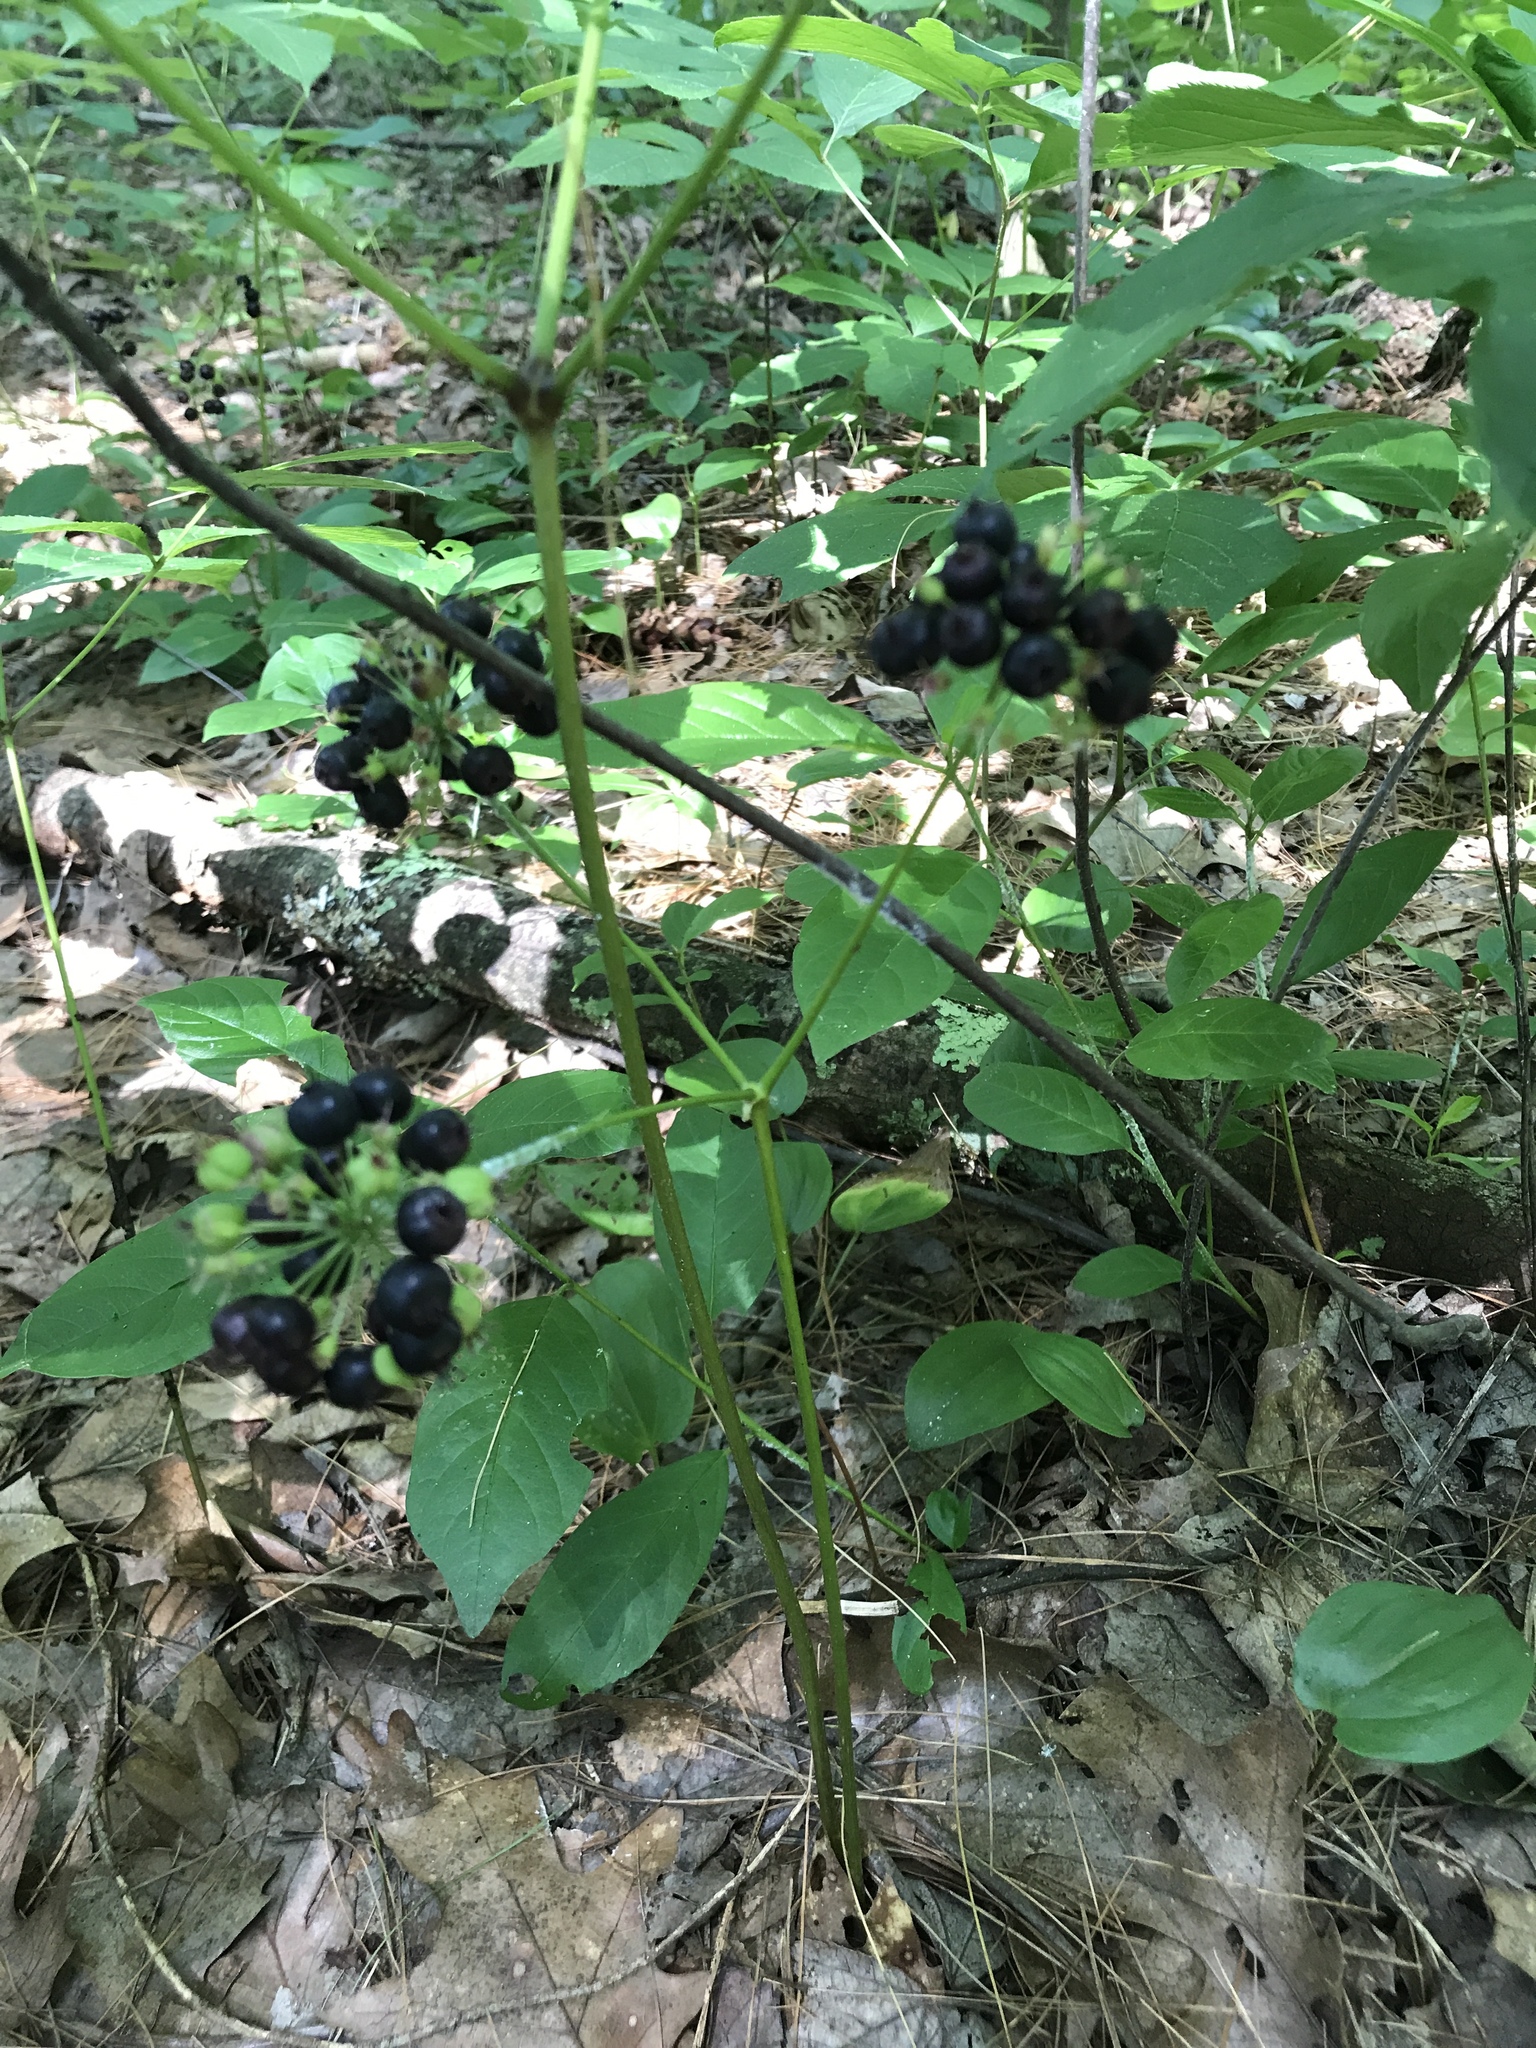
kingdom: Plantae
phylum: Tracheophyta
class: Magnoliopsida
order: Apiales
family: Araliaceae
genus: Aralia
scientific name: Aralia nudicaulis
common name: Wild sarsaparilla
